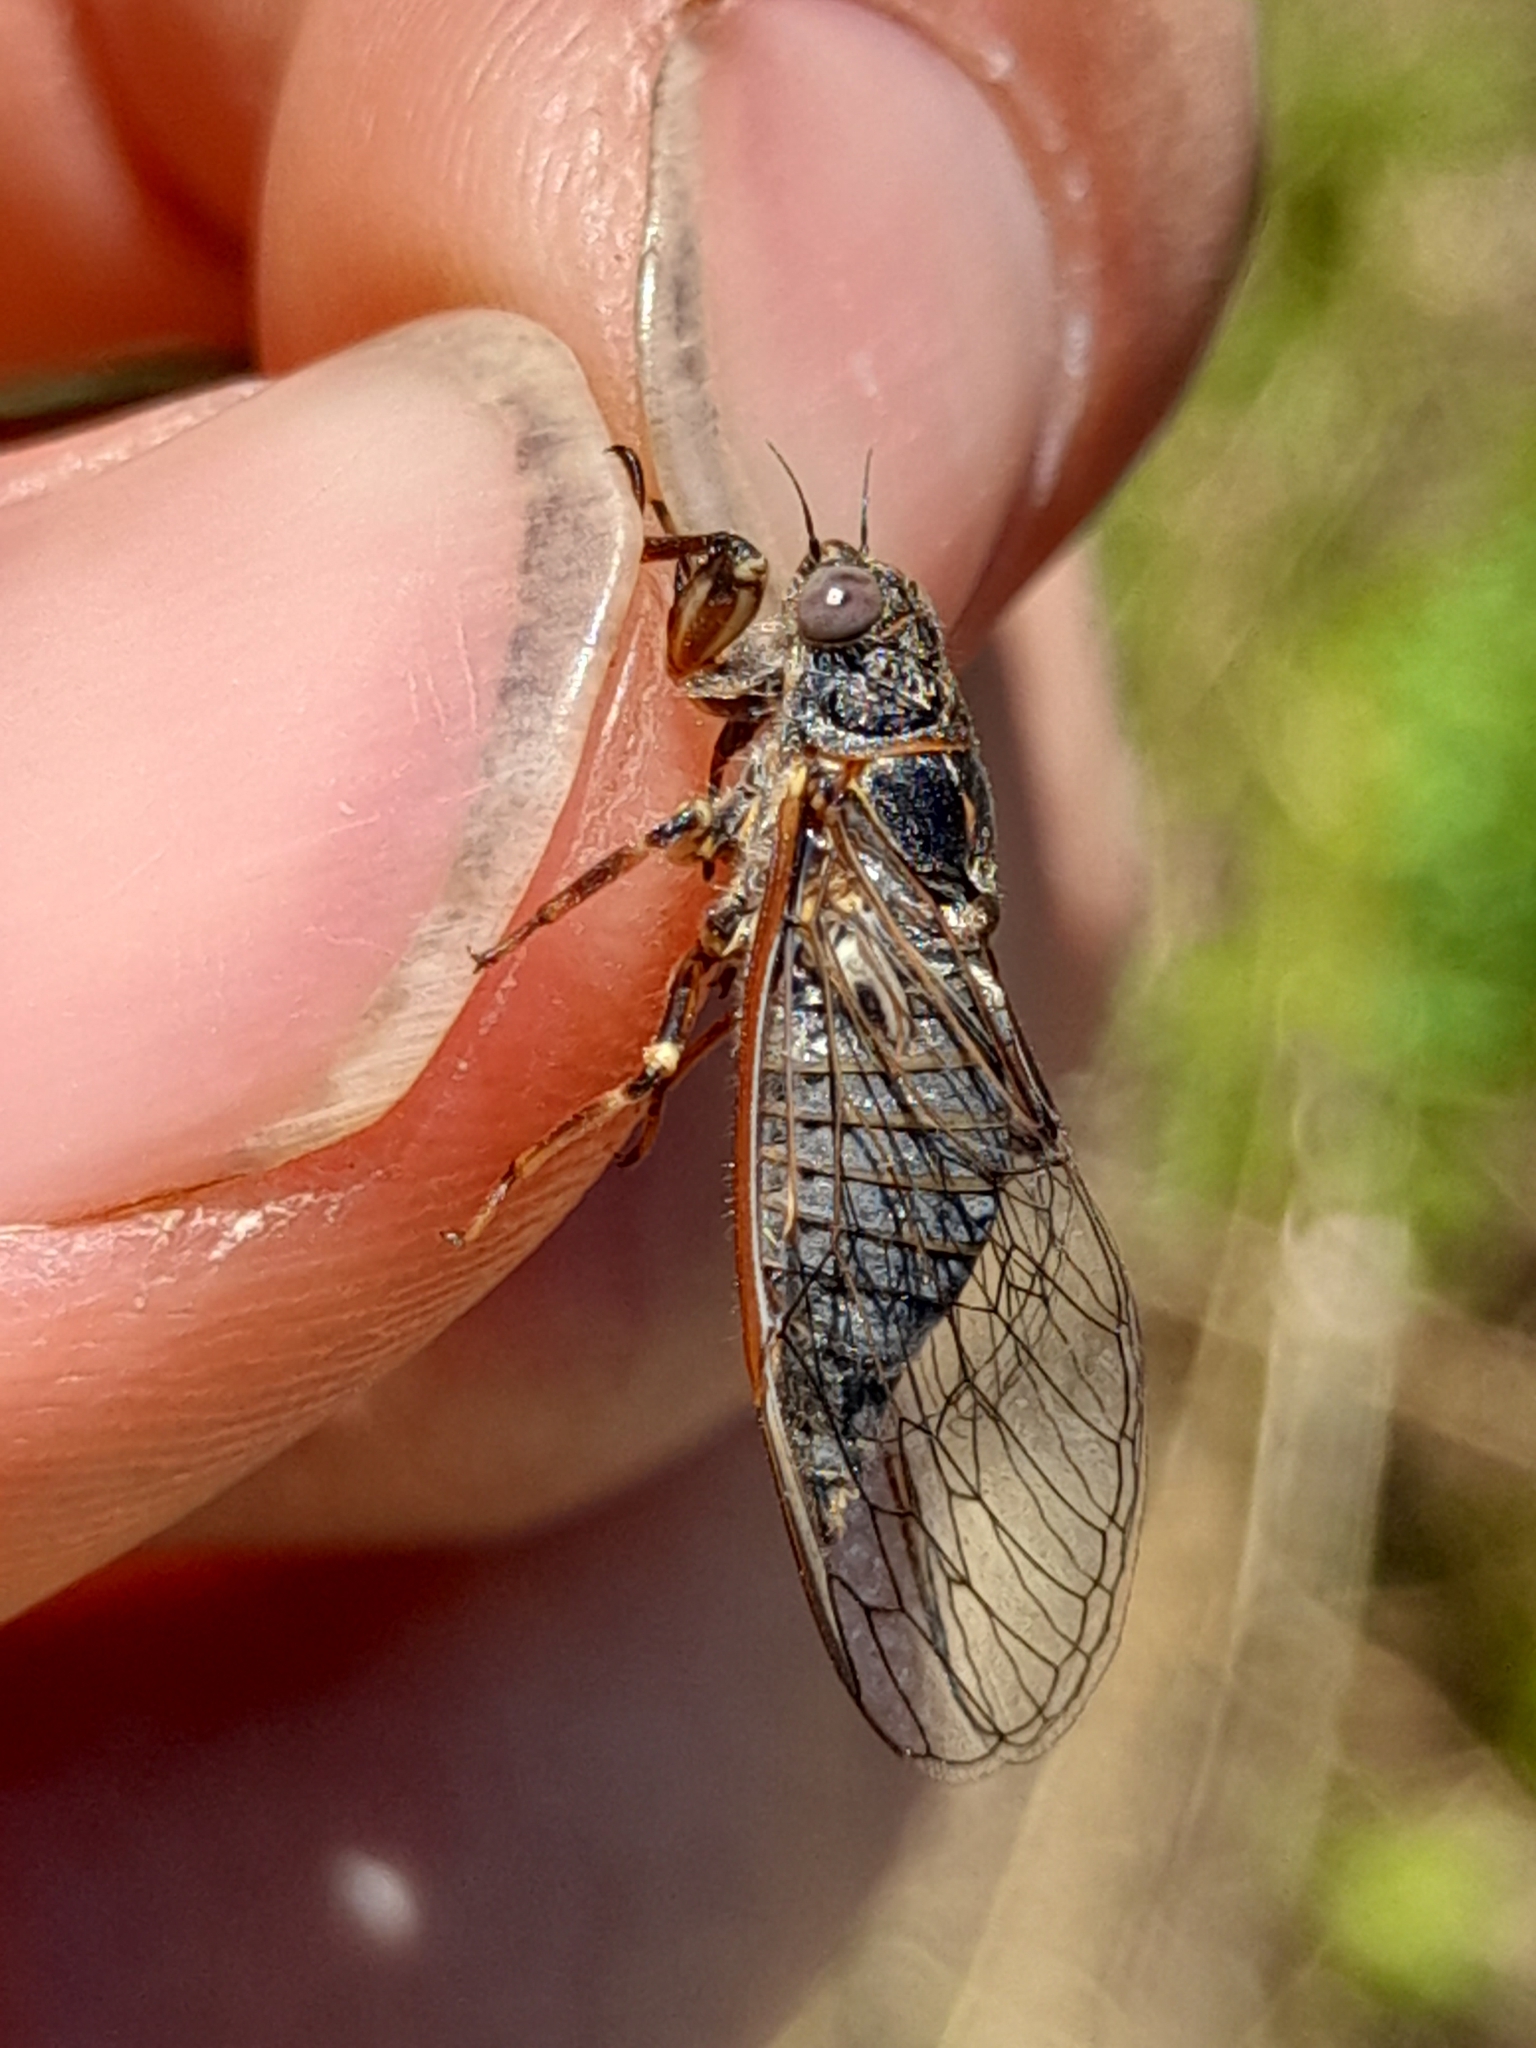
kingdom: Animalia
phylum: Arthropoda
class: Insecta
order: Hemiptera
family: Cicadidae
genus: Tettigettula
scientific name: Tettigettula pygmea
